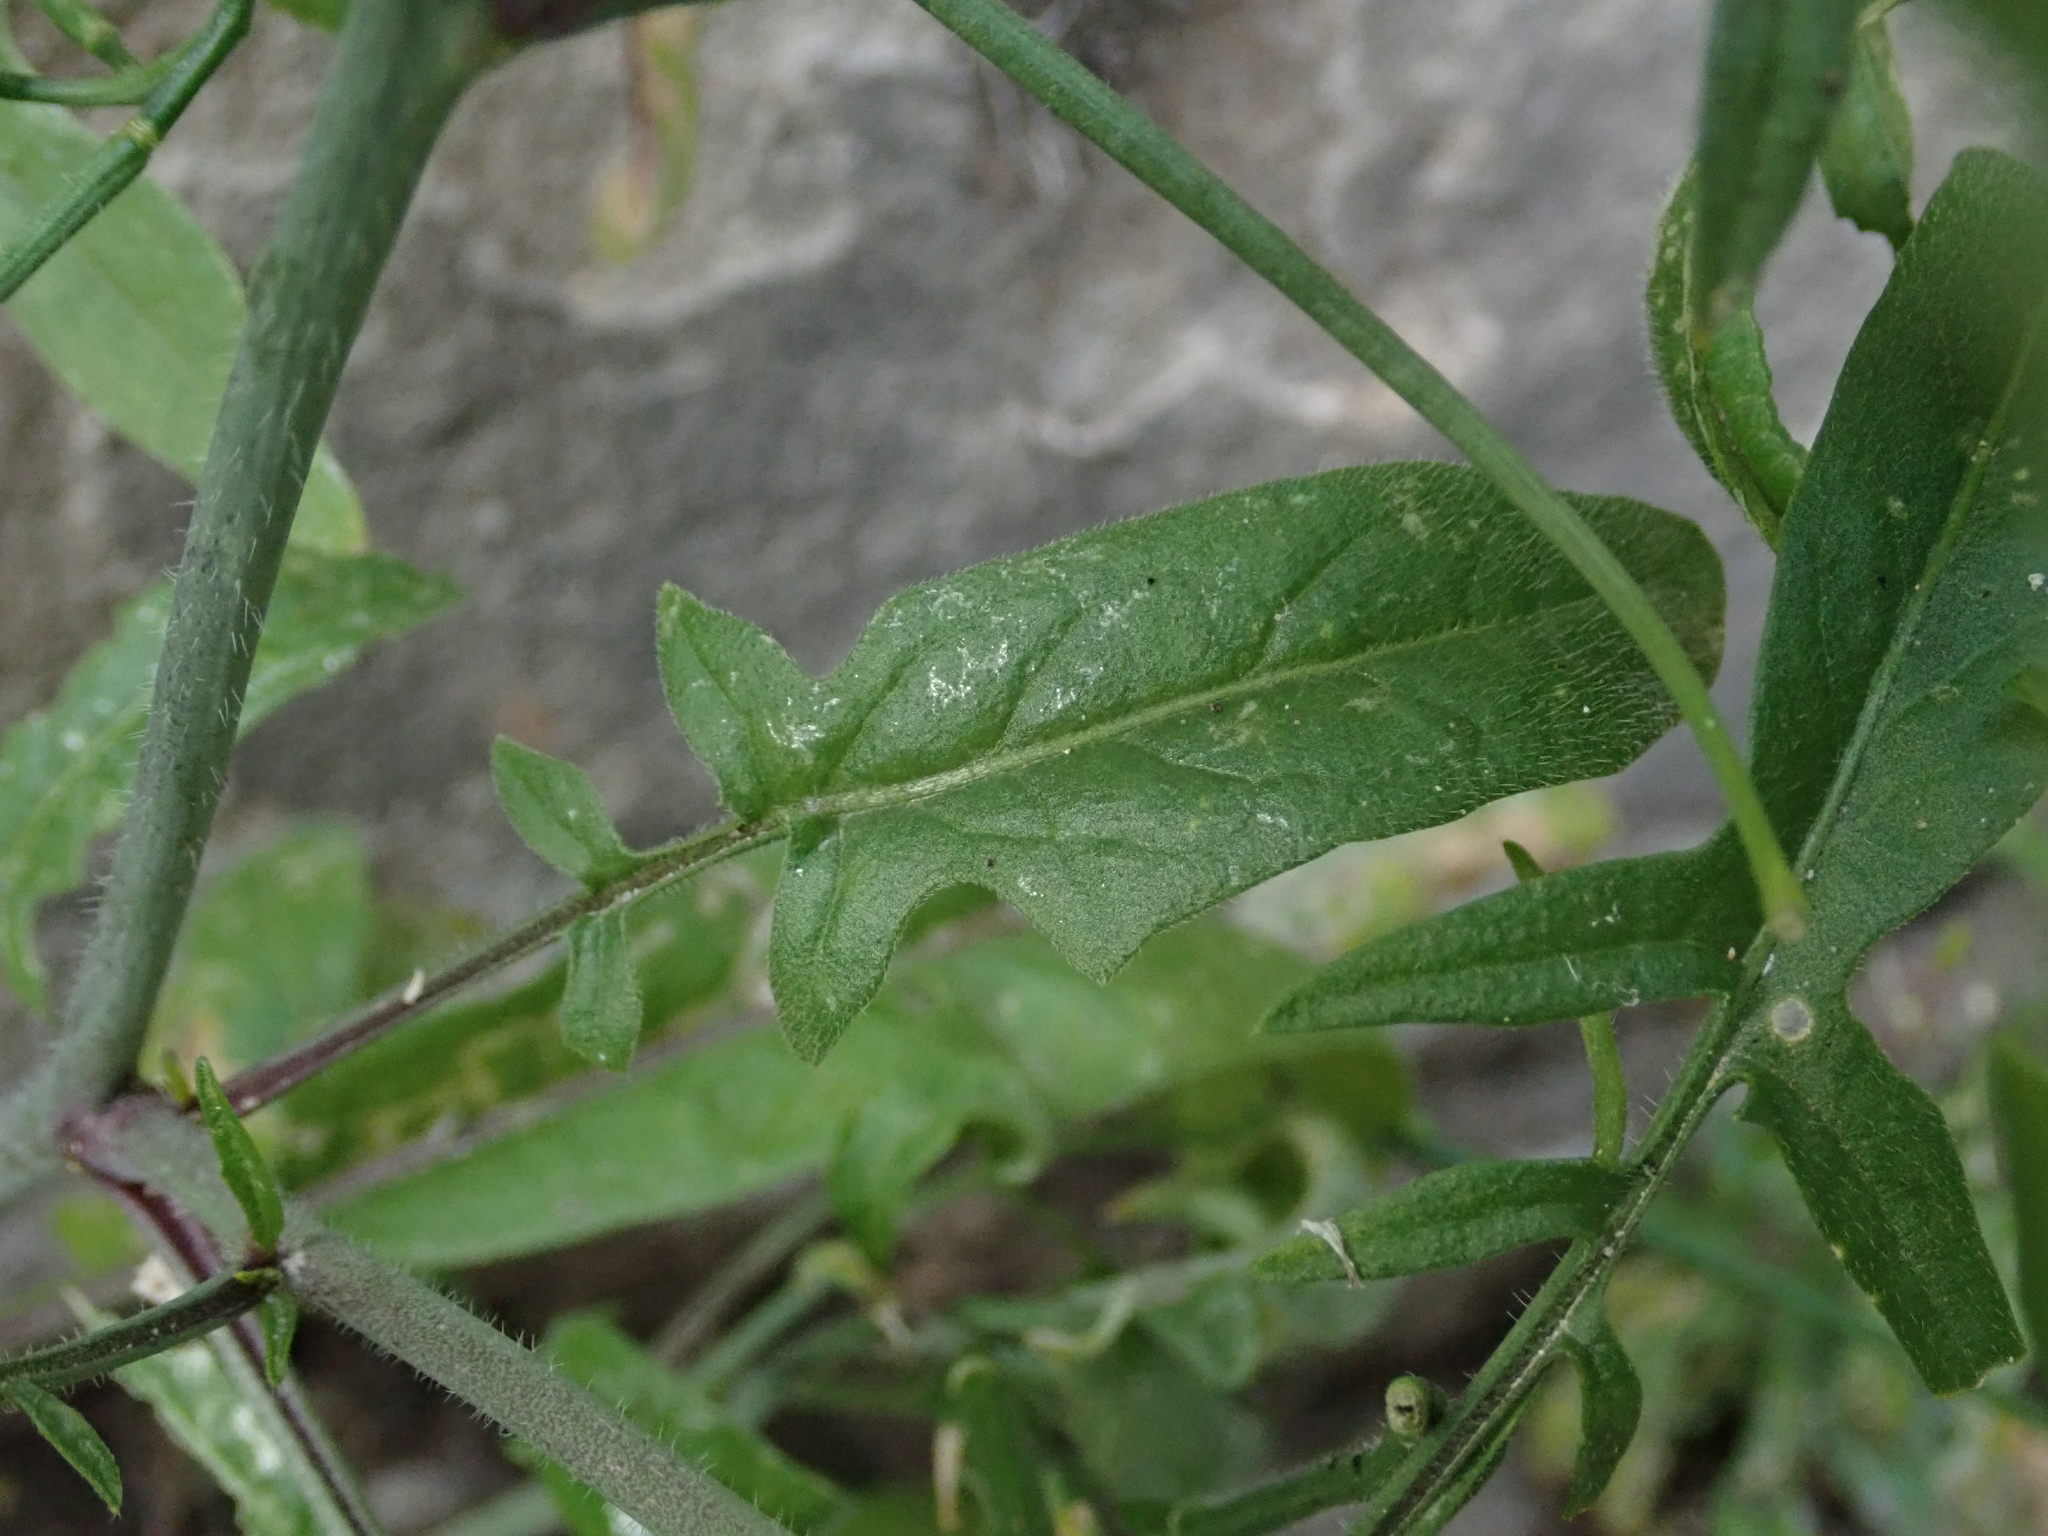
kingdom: Plantae
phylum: Tracheophyta
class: Magnoliopsida
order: Brassicales
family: Brassicaceae
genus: Sisymbrium
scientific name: Sisymbrium orientale
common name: Eastern rocket
